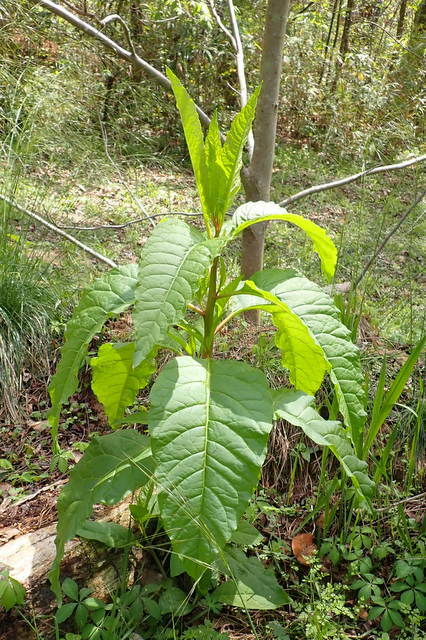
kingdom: Plantae
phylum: Tracheophyta
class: Magnoliopsida
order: Caryophyllales
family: Phytolaccaceae
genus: Phytolacca
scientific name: Phytolacca americana
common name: American pokeweed
